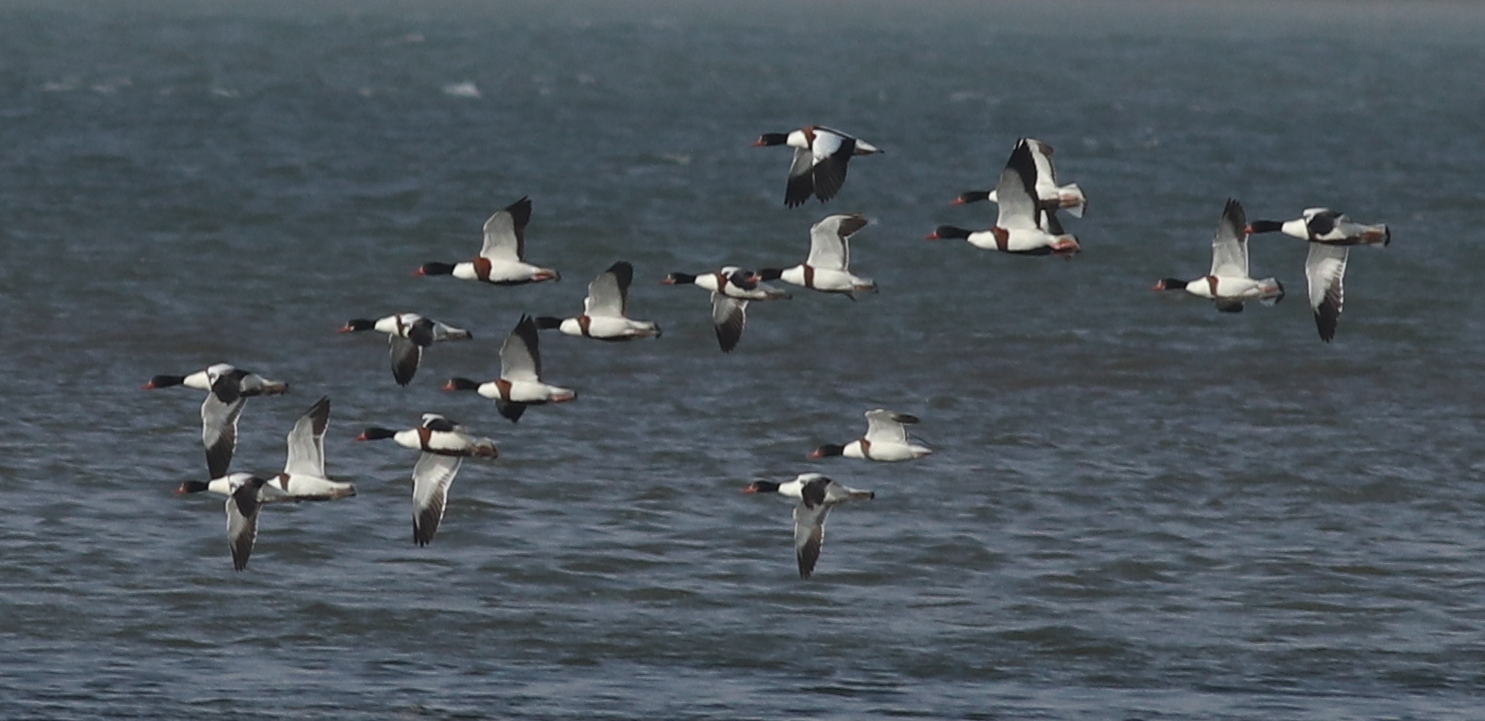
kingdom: Animalia
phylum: Chordata
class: Aves
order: Anseriformes
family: Anatidae
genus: Tadorna
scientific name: Tadorna tadorna
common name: Common shelduck
